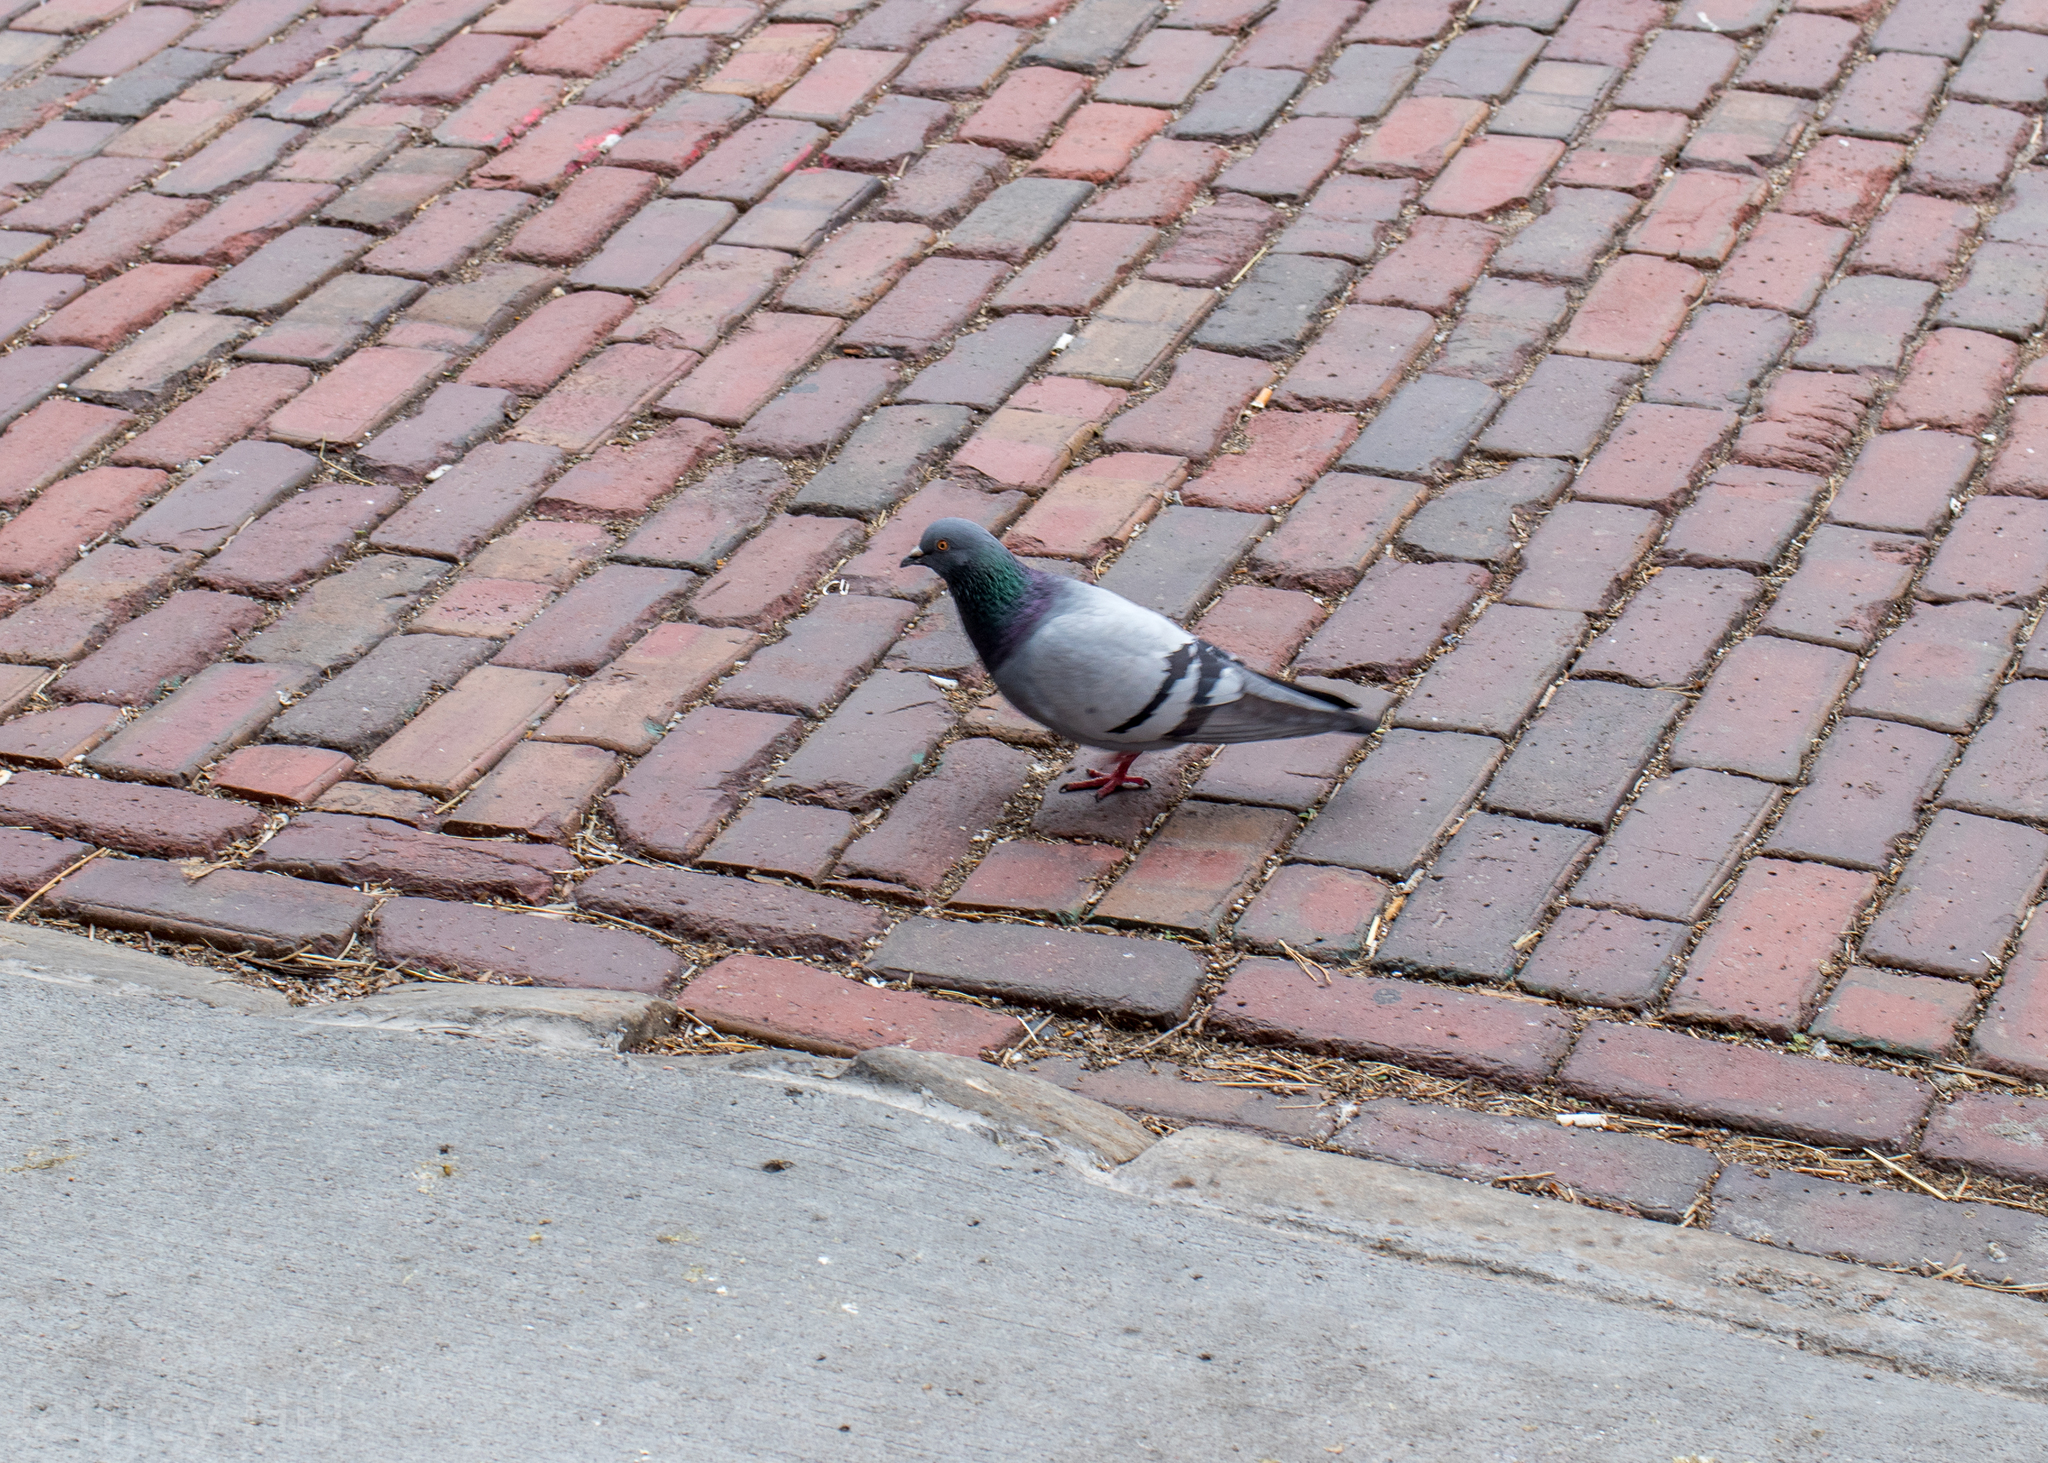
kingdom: Animalia
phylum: Chordata
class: Aves
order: Columbiformes
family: Columbidae
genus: Columba
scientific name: Columba livia
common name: Rock pigeon
